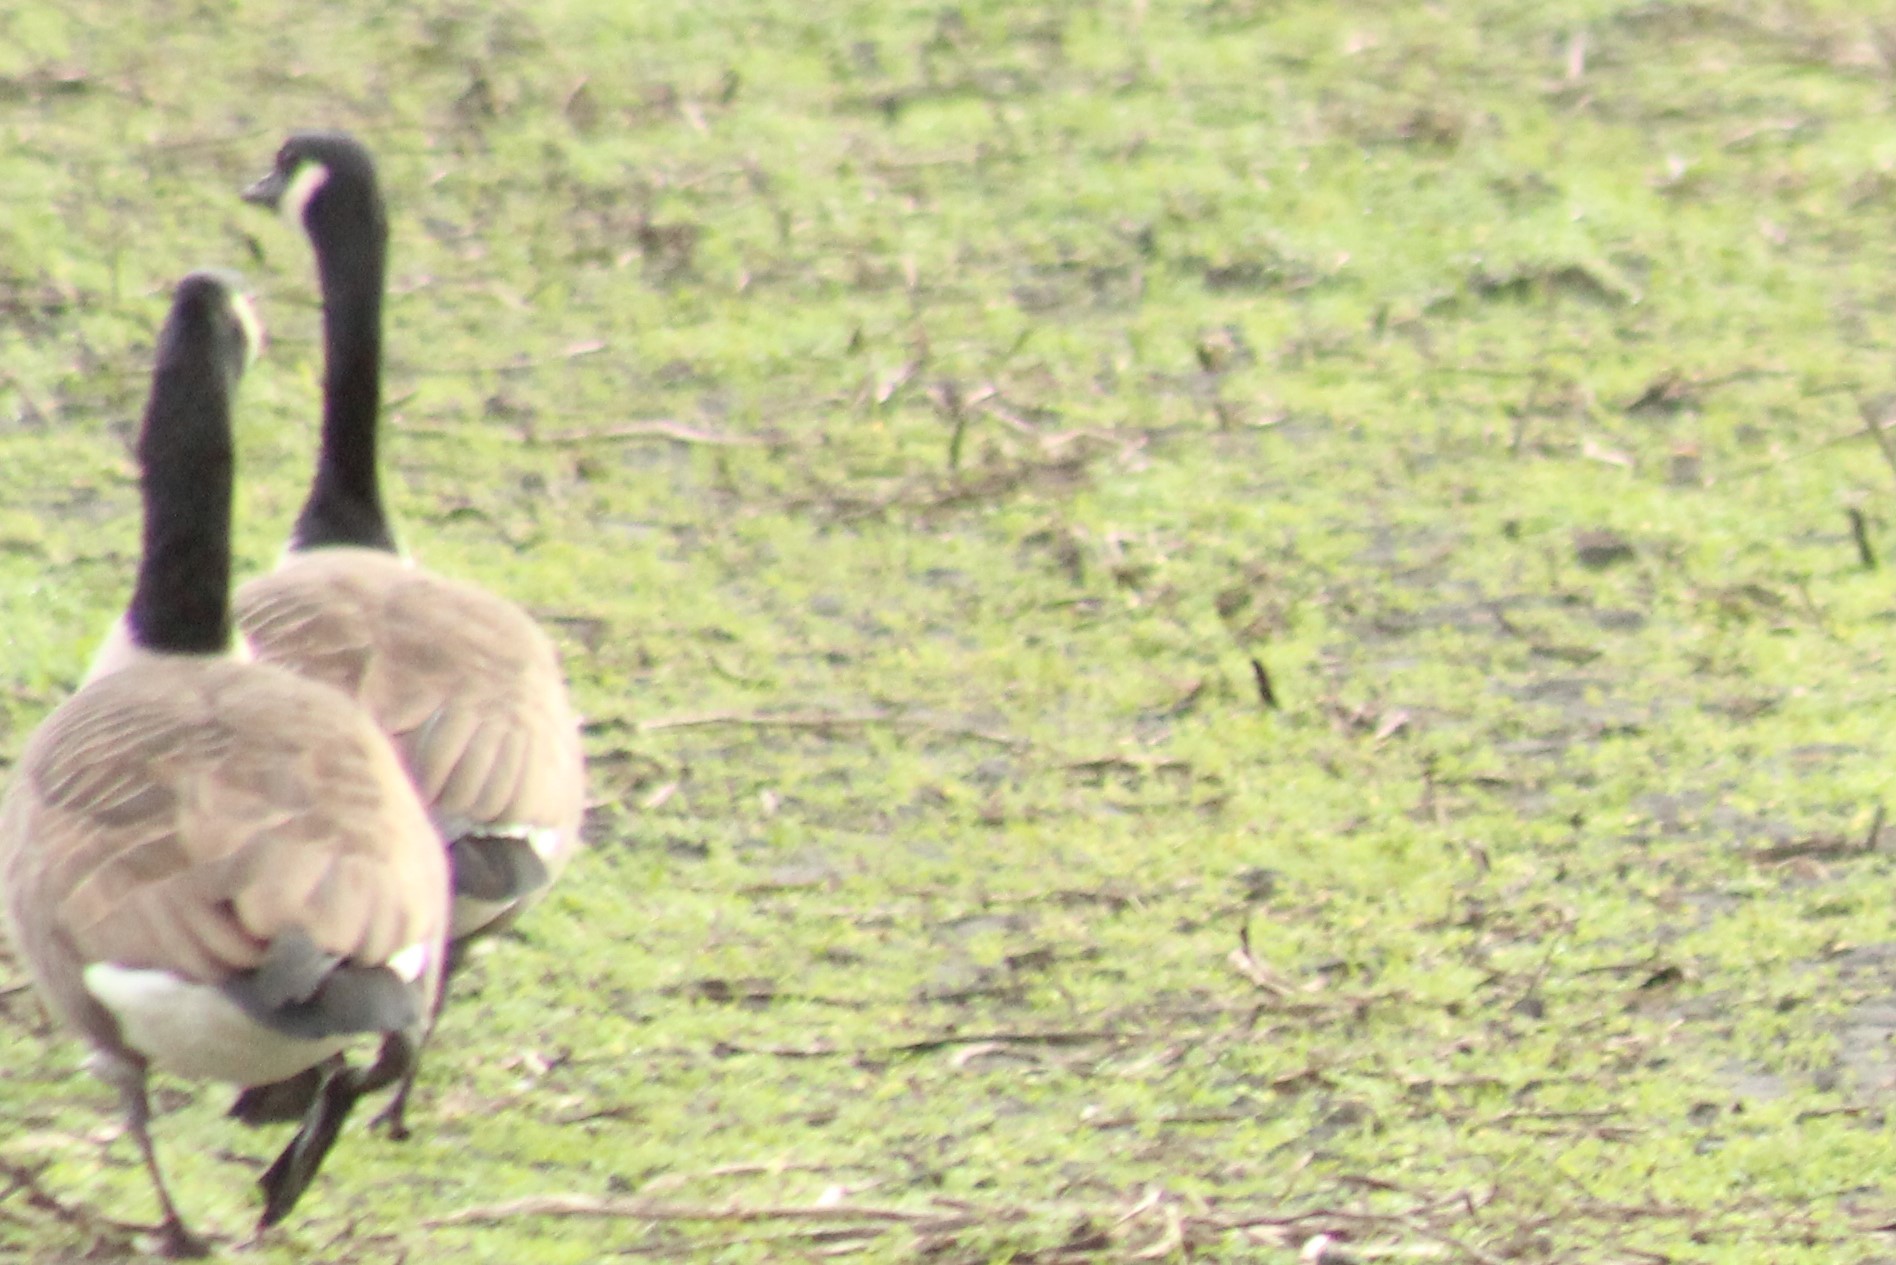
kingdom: Animalia
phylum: Chordata
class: Aves
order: Anseriformes
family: Anatidae
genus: Branta
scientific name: Branta canadensis
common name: Canada goose
